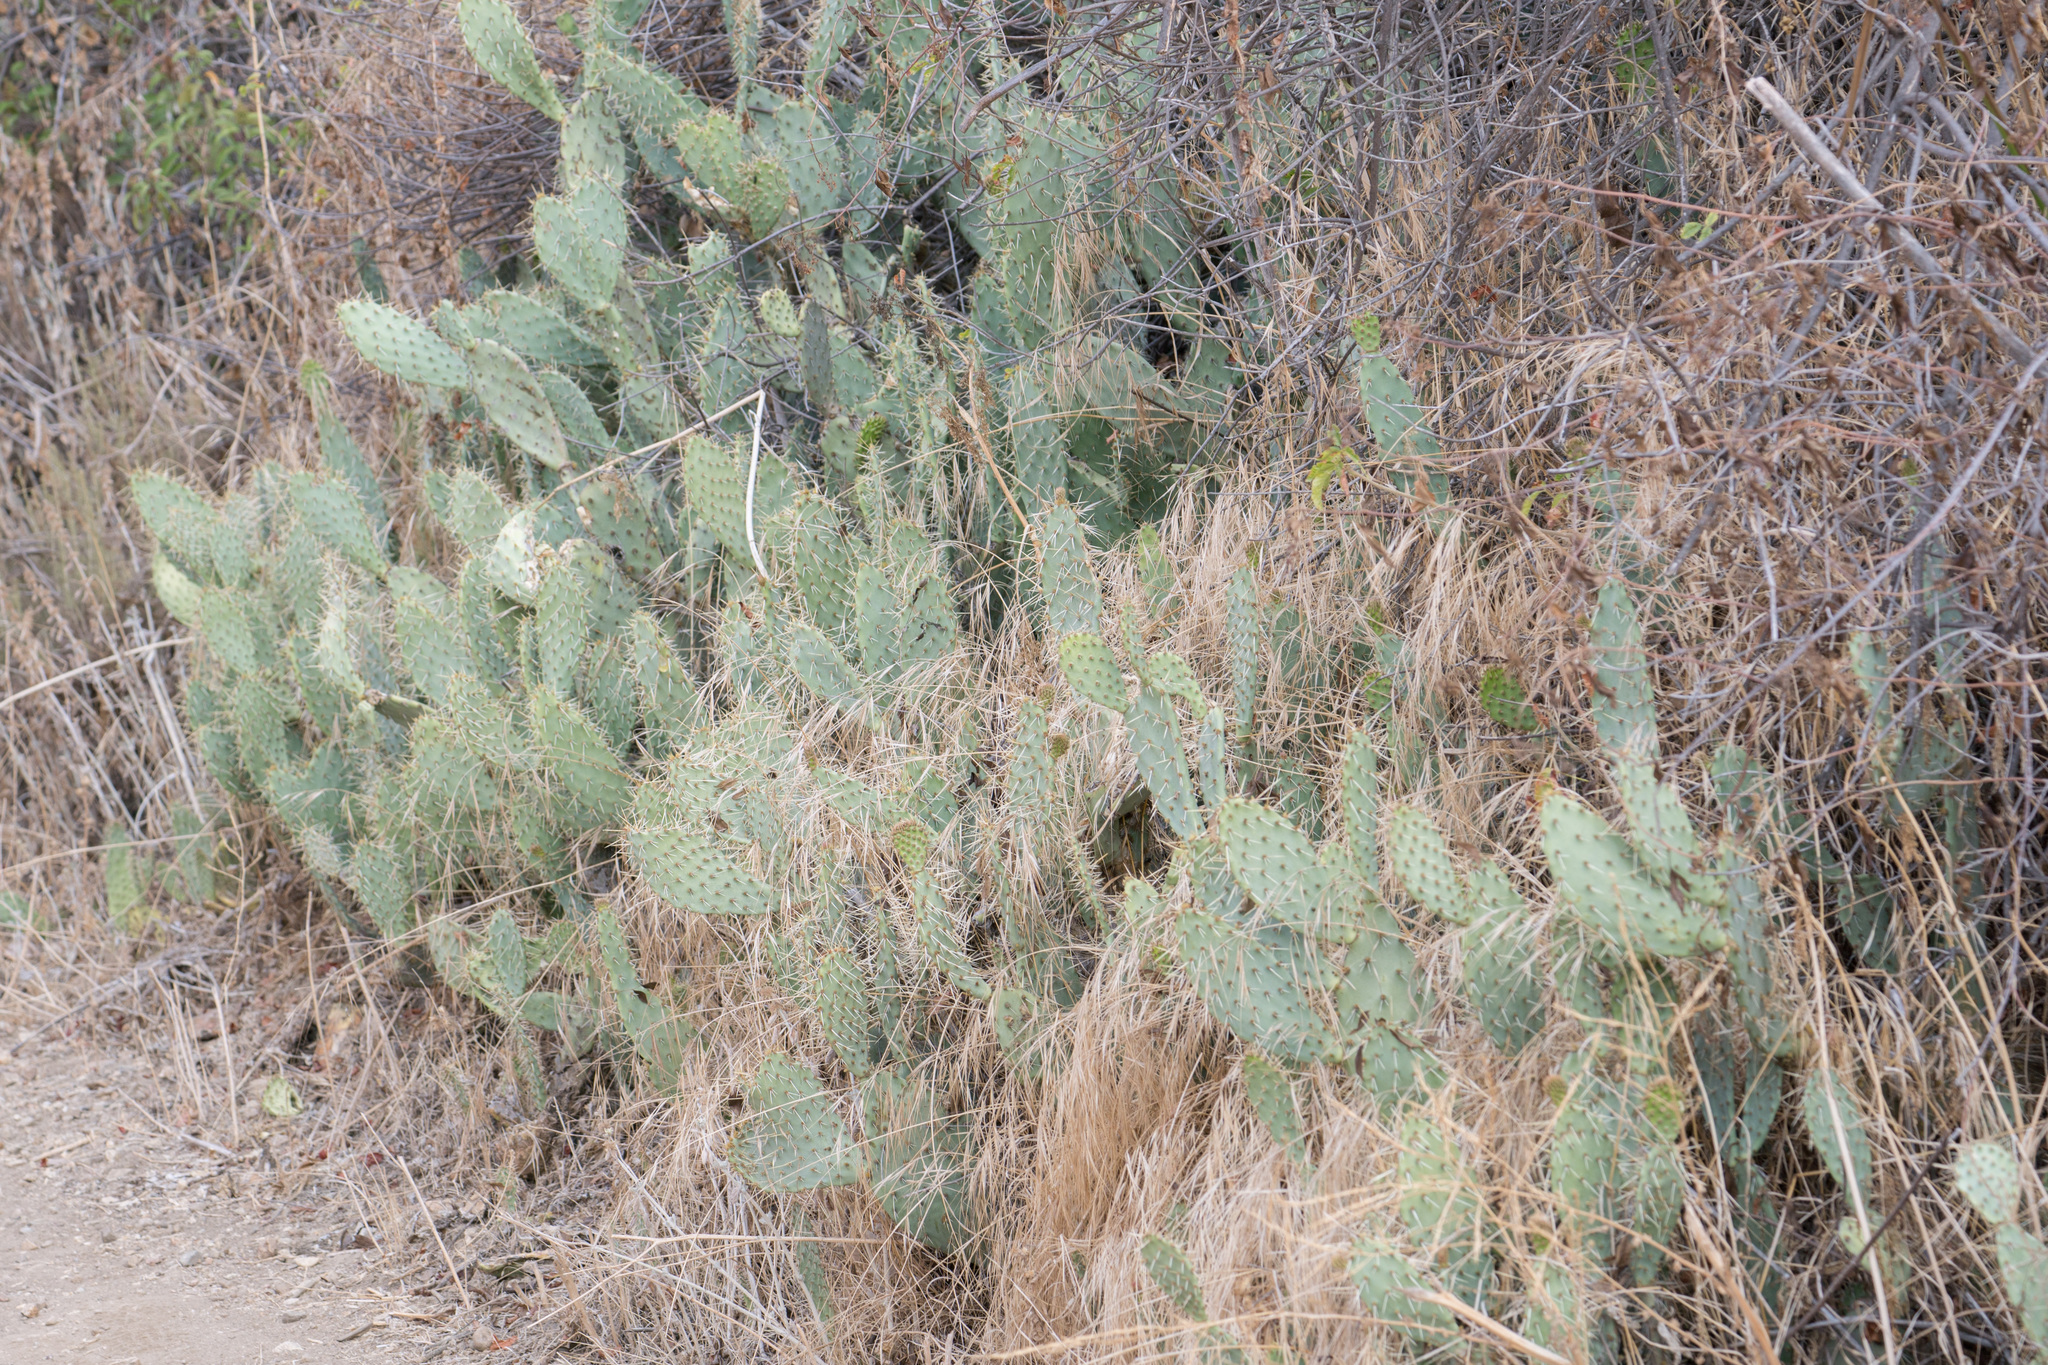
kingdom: Plantae
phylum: Tracheophyta
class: Magnoliopsida
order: Caryophyllales
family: Cactaceae
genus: Opuntia
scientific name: Opuntia littoralis
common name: Coastal prickly-pear
